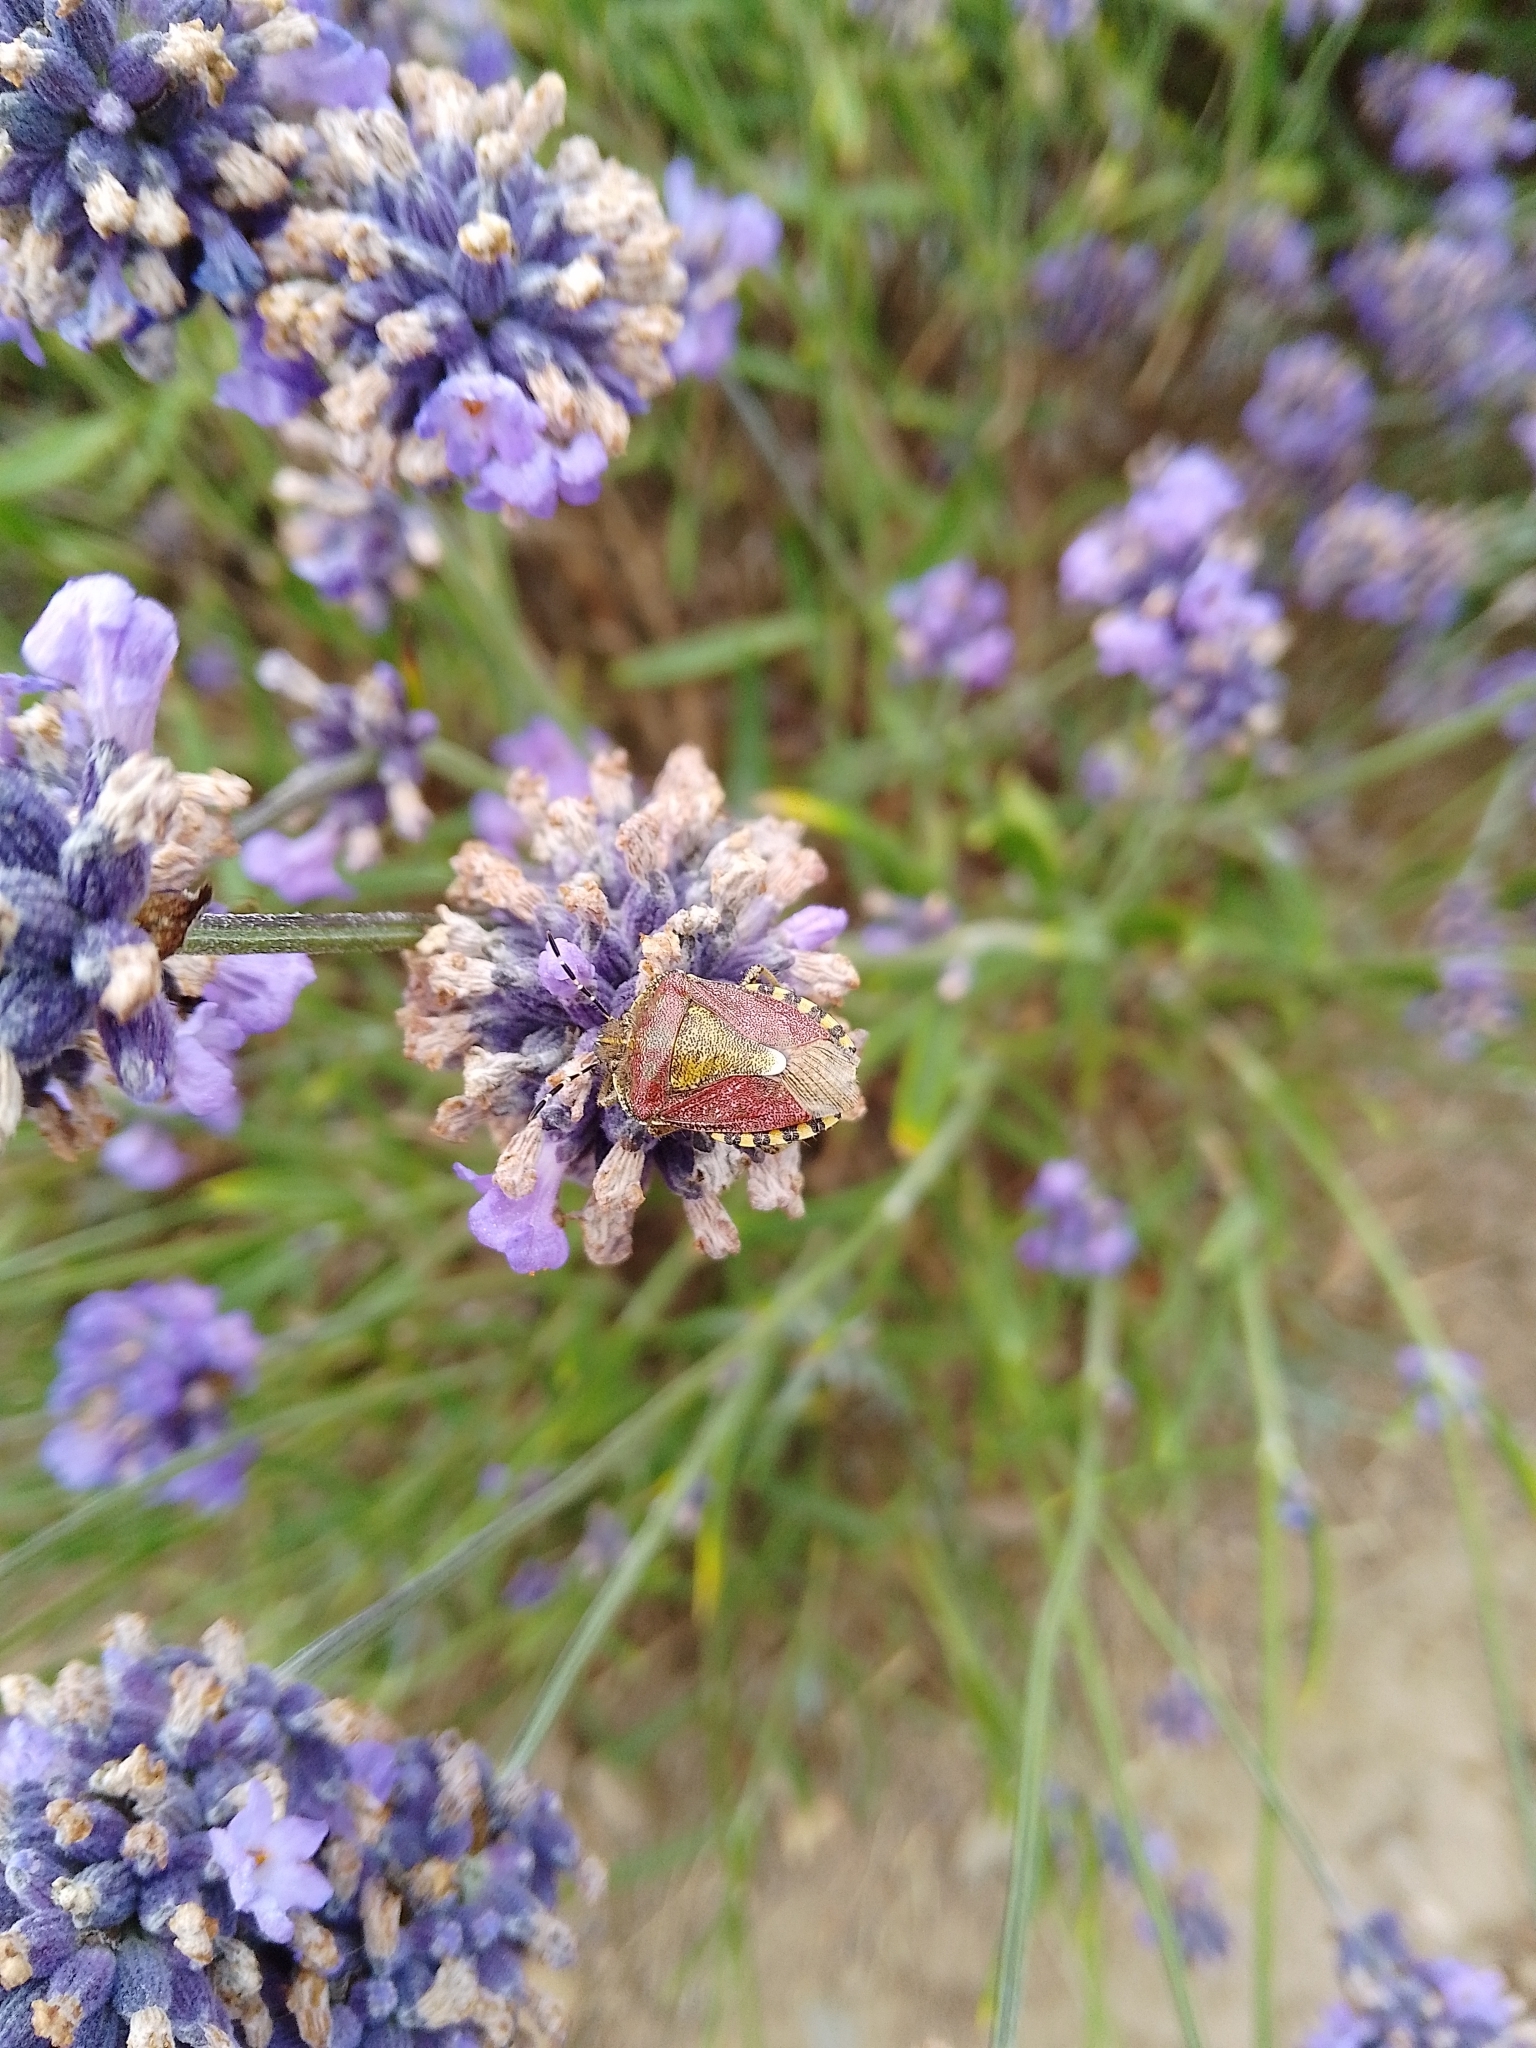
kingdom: Animalia
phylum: Arthropoda
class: Insecta
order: Hemiptera
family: Pentatomidae
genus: Dolycoris
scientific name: Dolycoris baccarum
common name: Sloe bug
